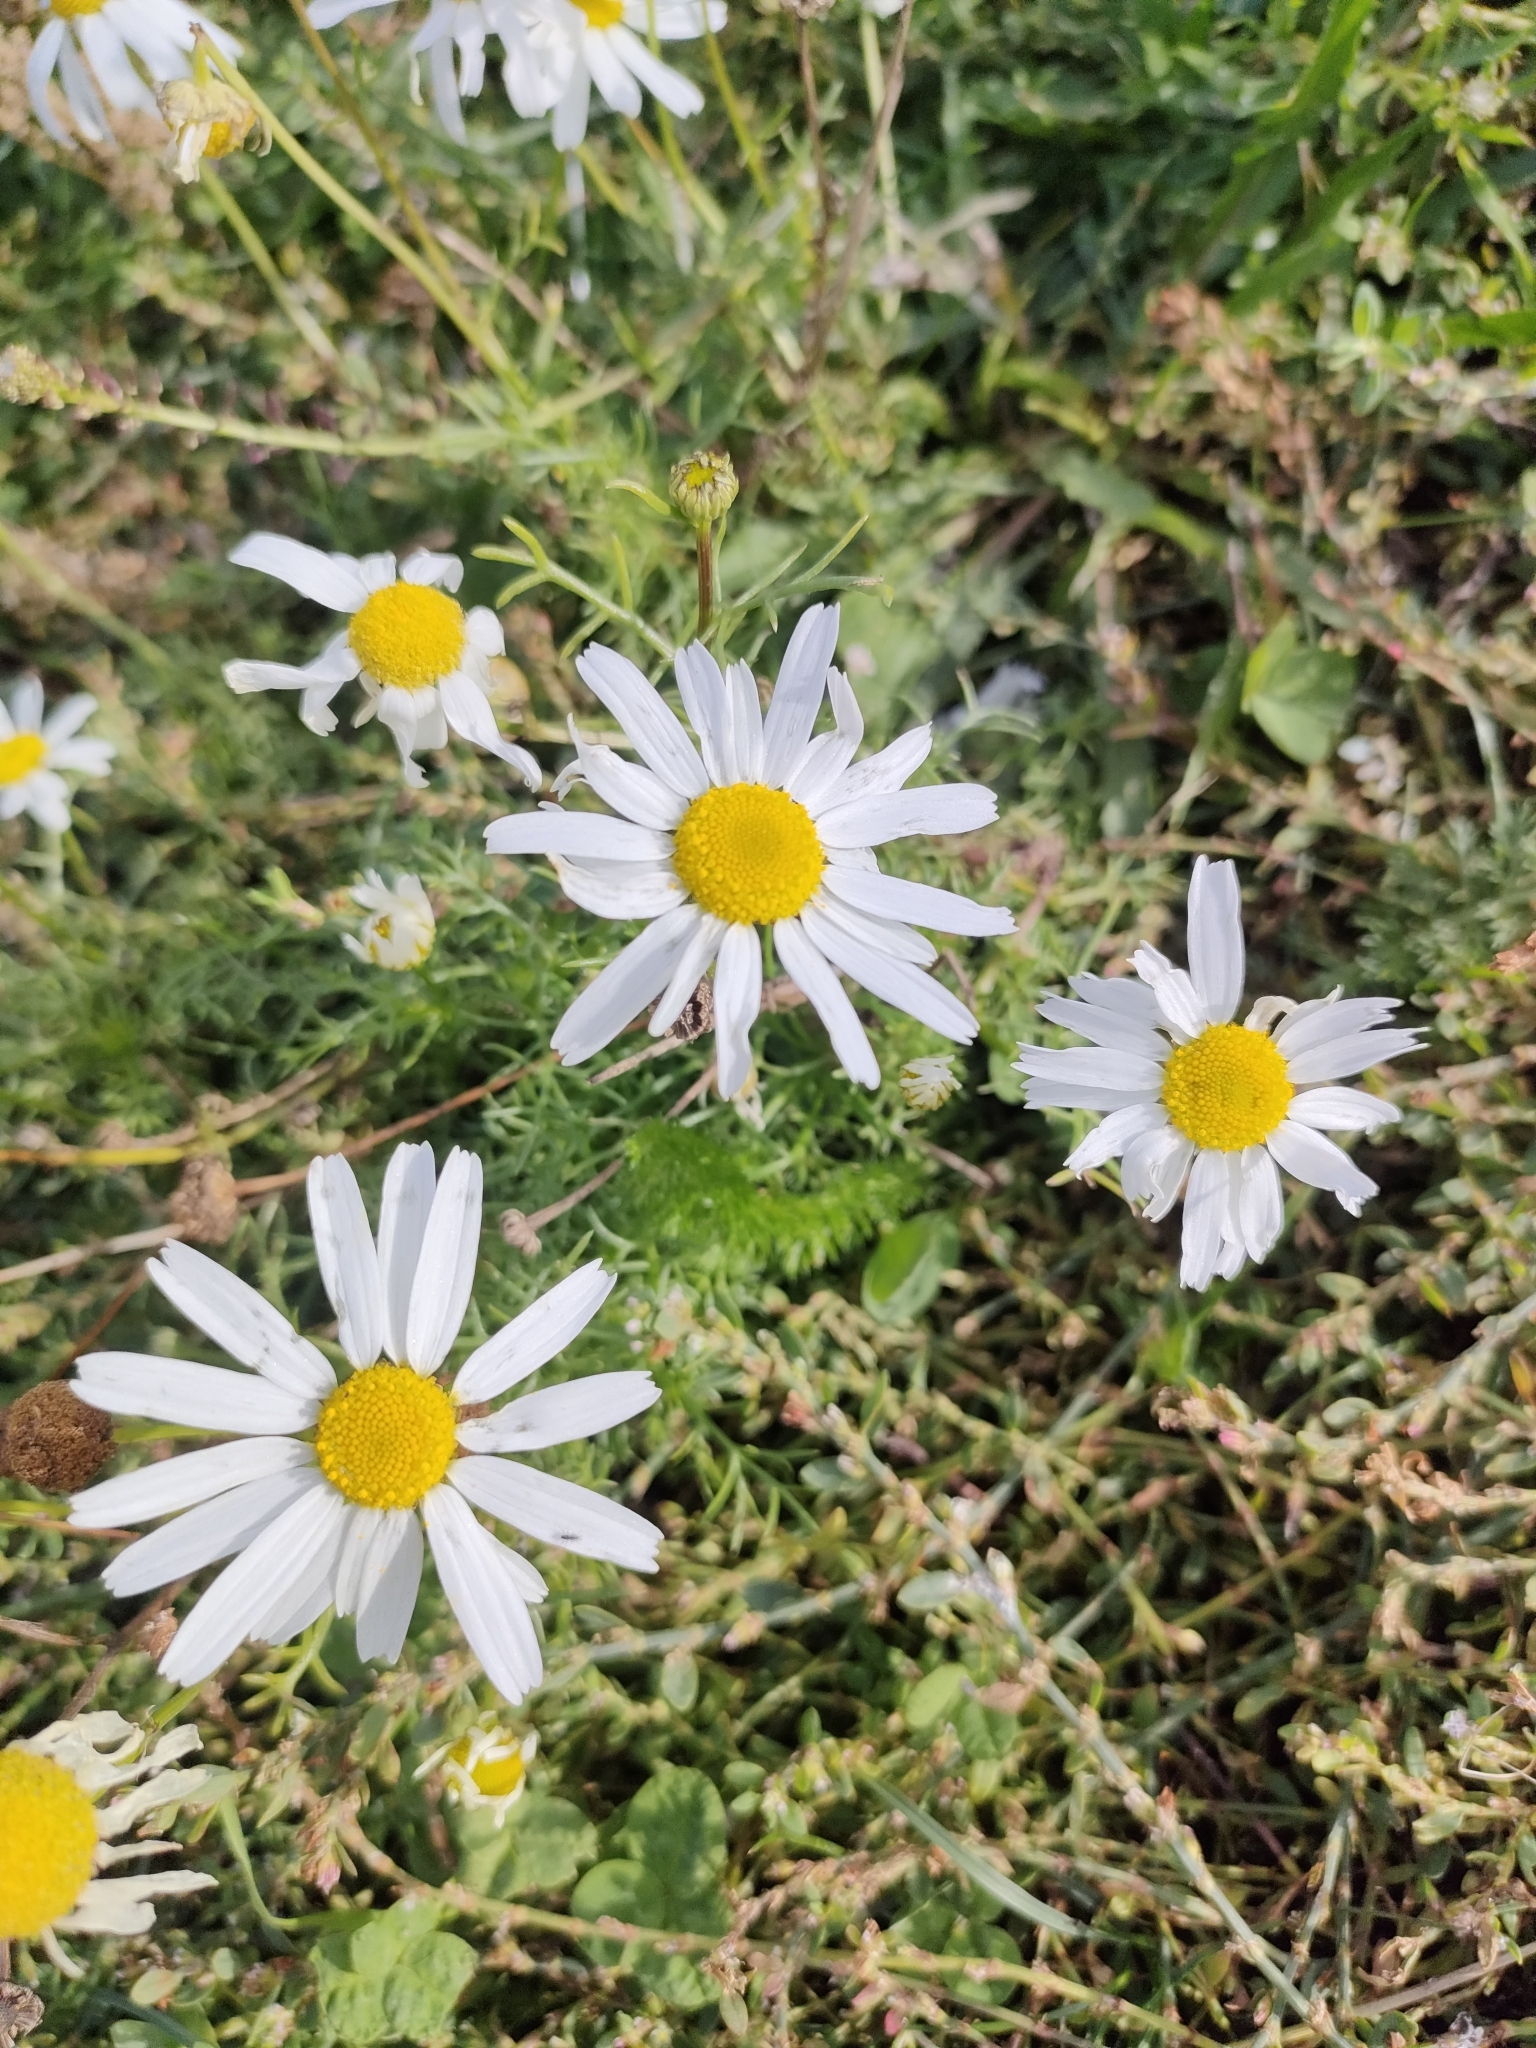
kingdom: Plantae
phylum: Tracheophyta
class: Magnoliopsida
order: Asterales
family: Asteraceae
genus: Tripleurospermum
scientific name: Tripleurospermum inodorum
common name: Scentless mayweed
